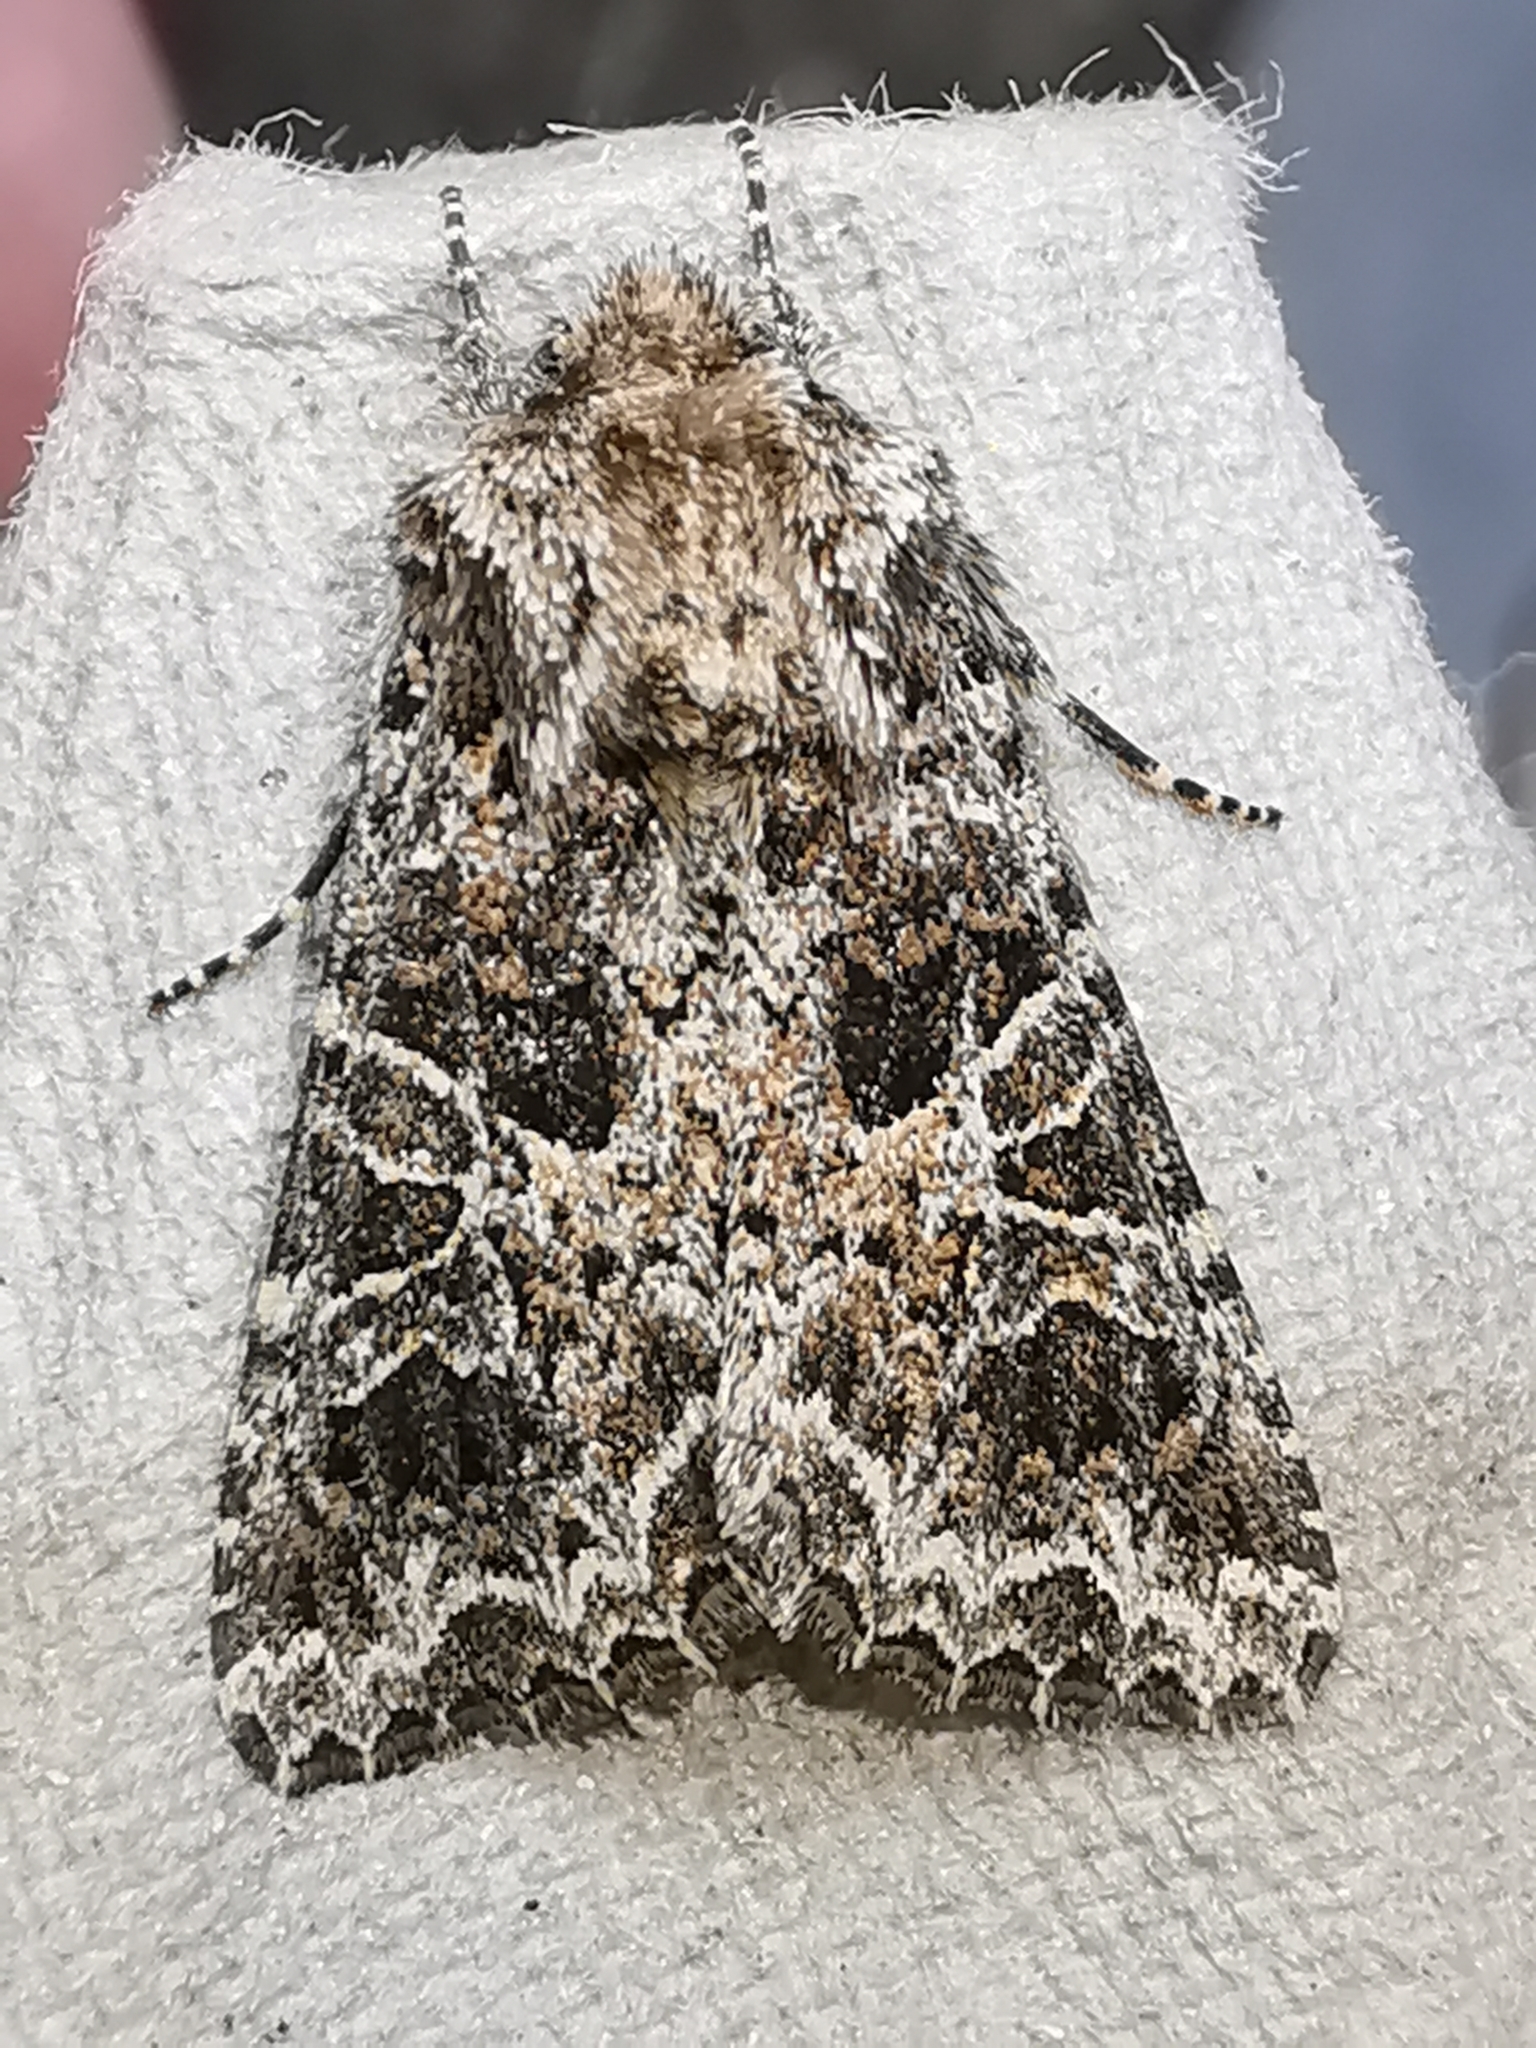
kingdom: Animalia
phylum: Arthropoda
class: Insecta
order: Lepidoptera
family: Noctuidae
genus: Hadena
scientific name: Hadena bicruris
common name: Lychnis
